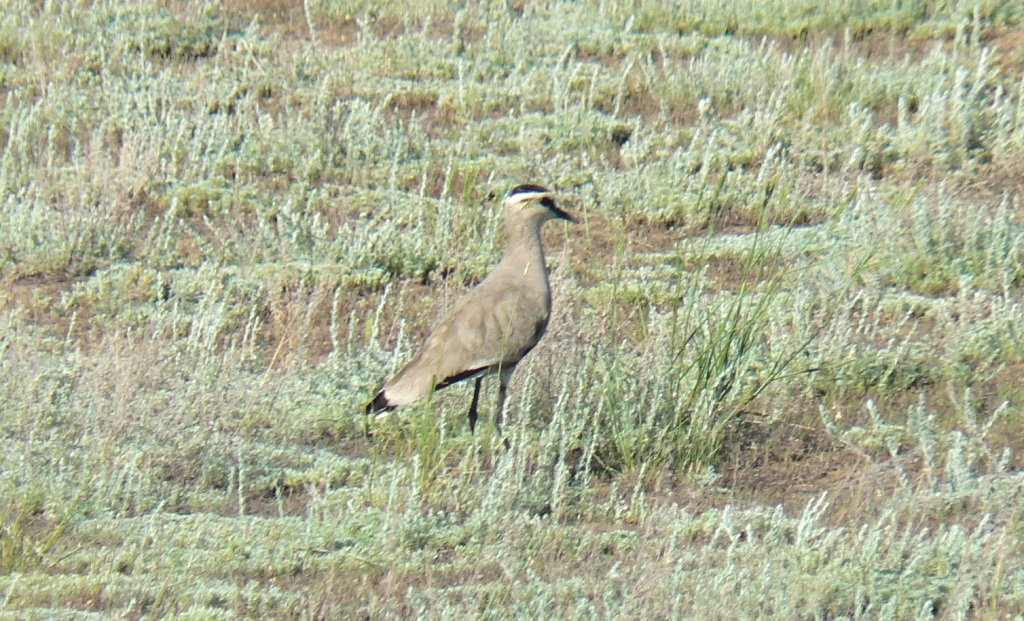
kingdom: Animalia
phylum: Chordata
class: Aves
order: Charadriiformes
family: Charadriidae
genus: Vanellus
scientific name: Vanellus gregarius
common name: Sociable lapwing
